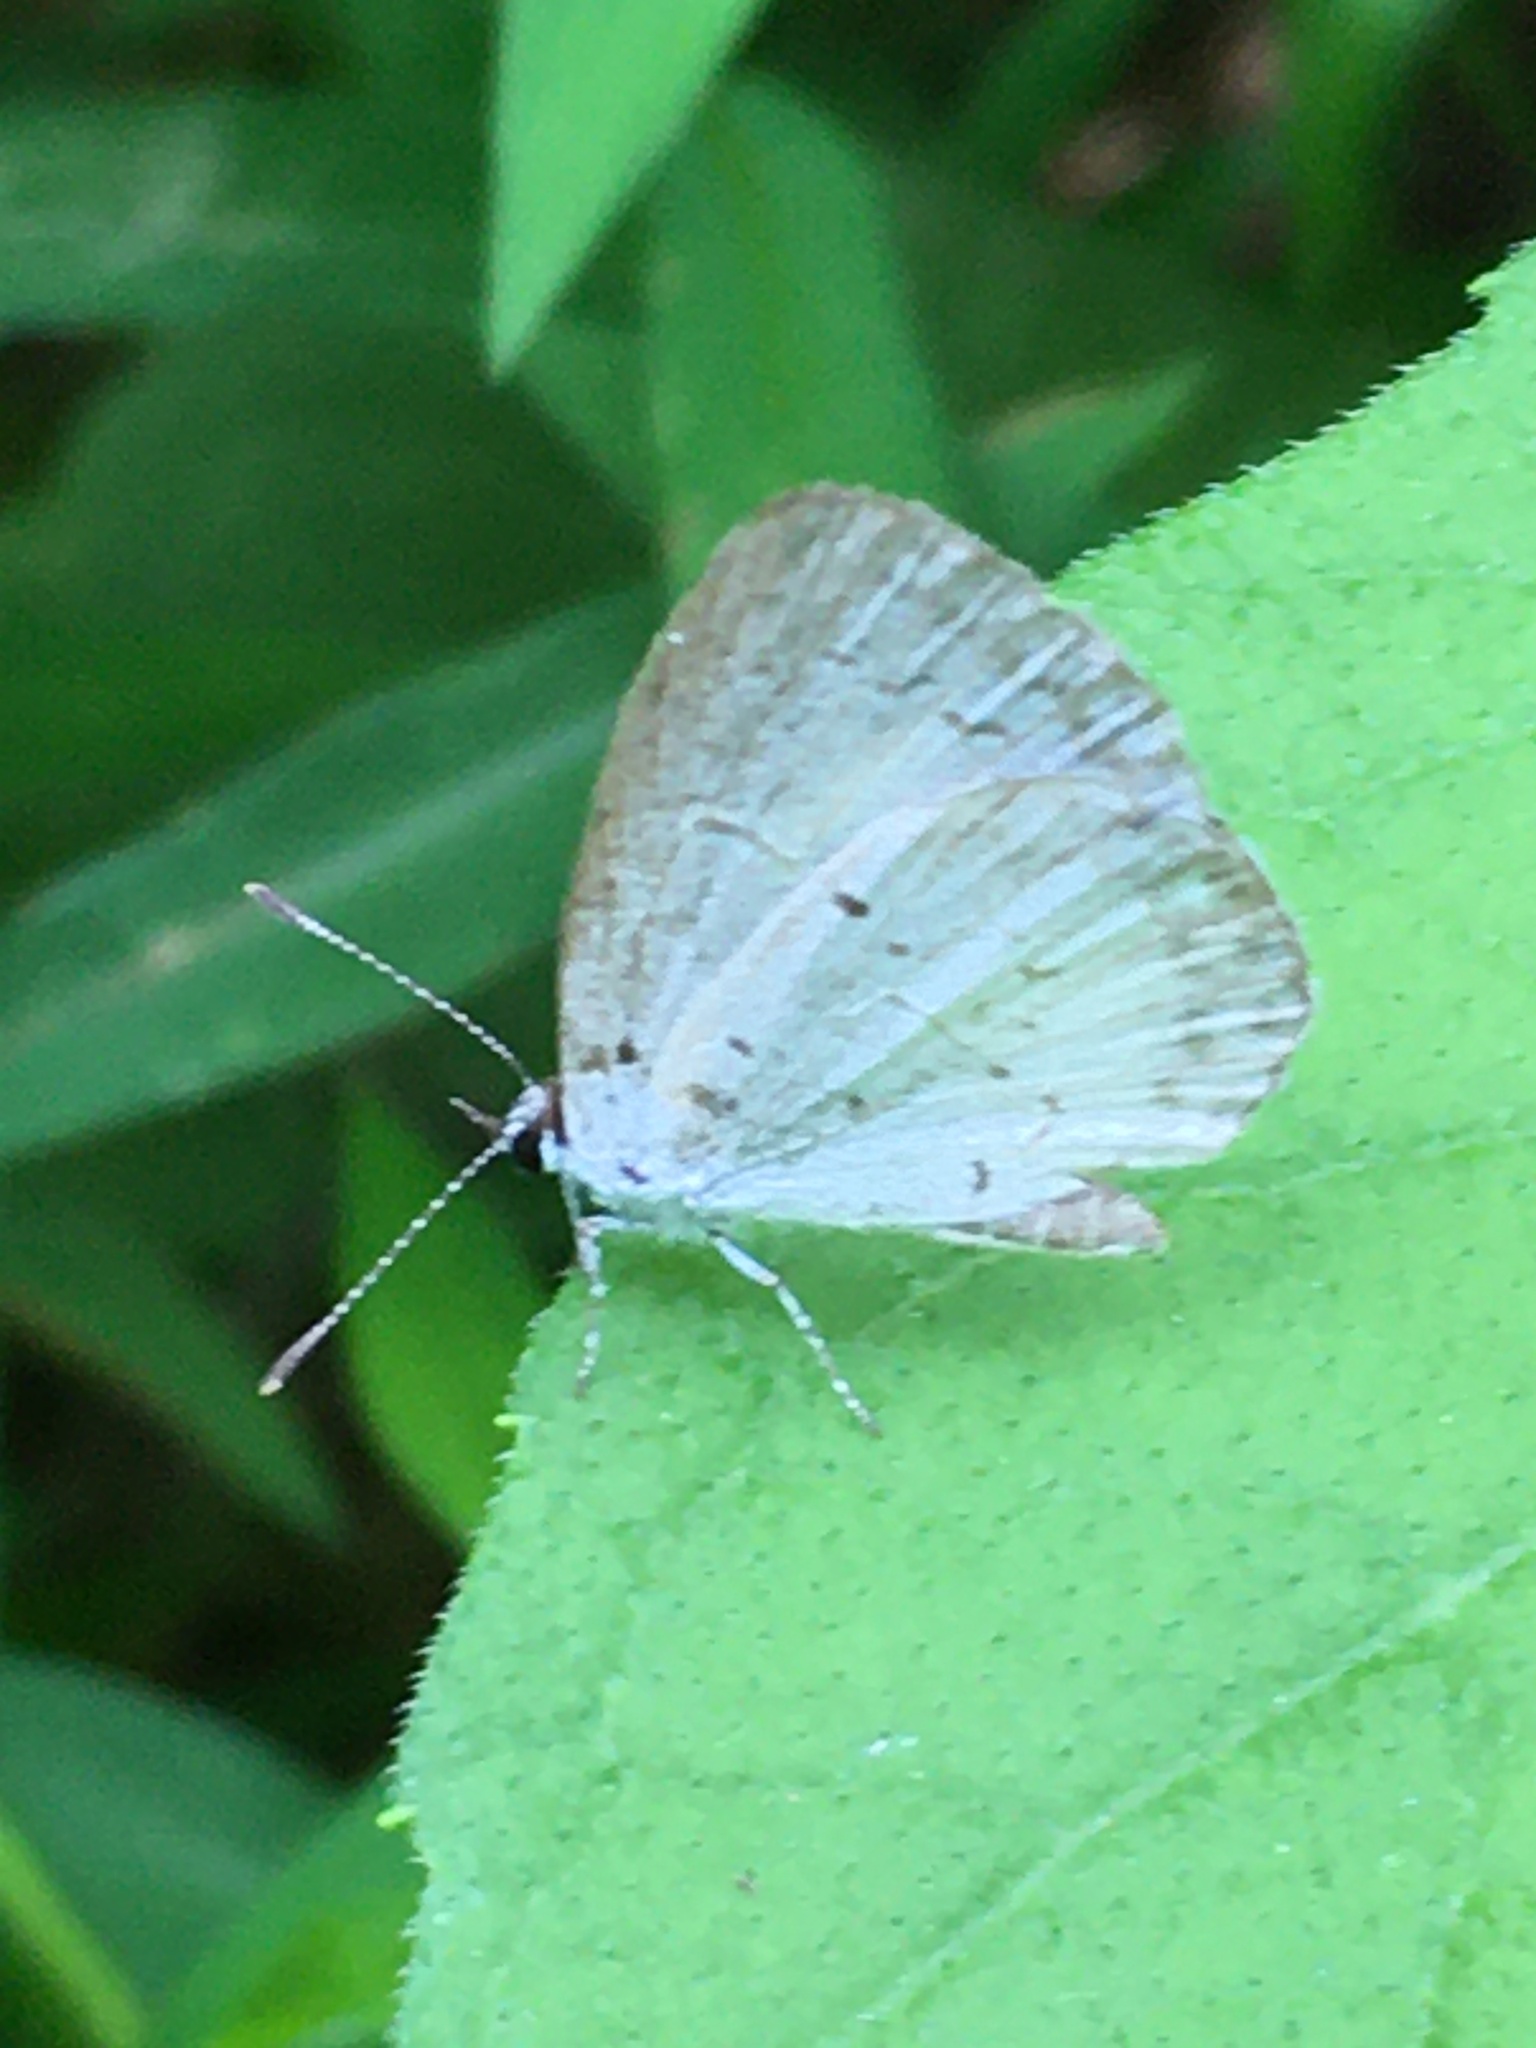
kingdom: Animalia
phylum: Arthropoda
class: Insecta
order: Lepidoptera
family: Lycaenidae
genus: Cyaniris
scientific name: Cyaniris neglecta
